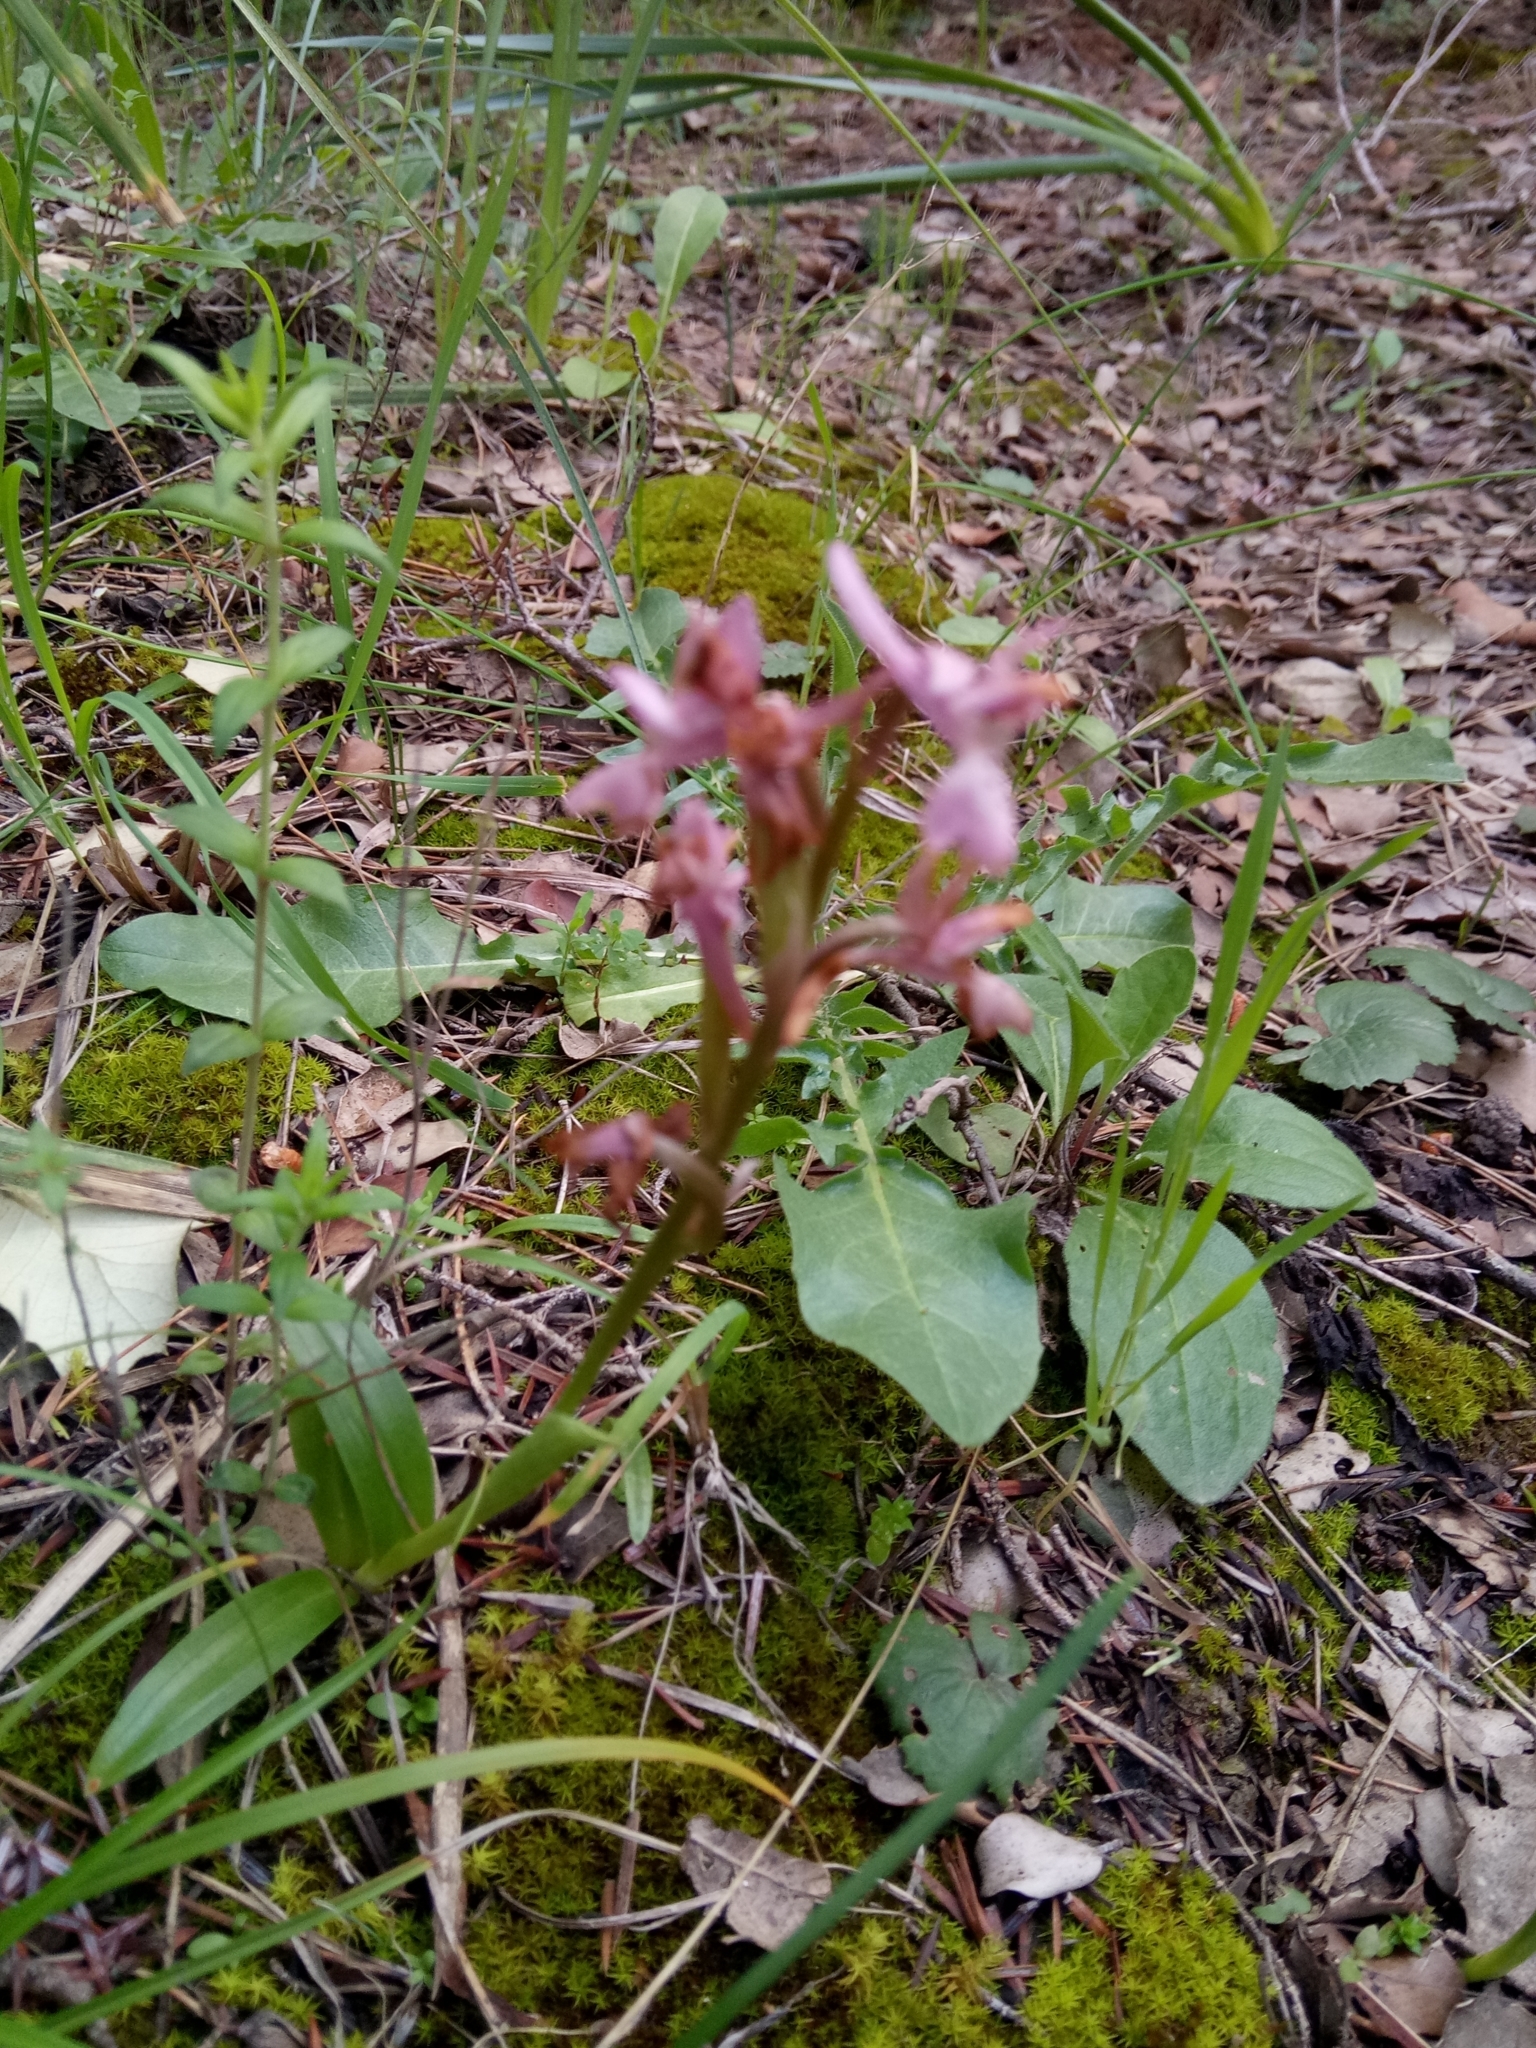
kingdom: Plantae
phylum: Tracheophyta
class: Liliopsida
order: Asparagales
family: Orchidaceae
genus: Orchis
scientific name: Orchis laeta
